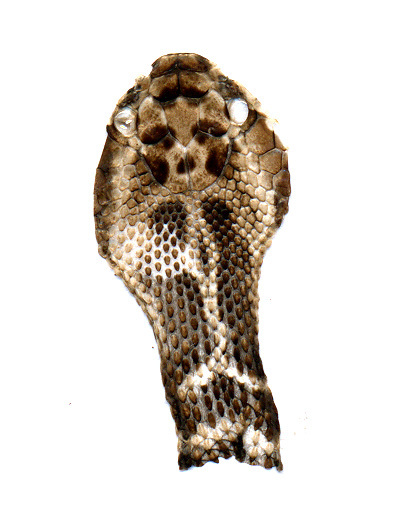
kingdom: Animalia
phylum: Chordata
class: Squamata
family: Viperidae
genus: Gloydius
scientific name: Gloydius intermedius
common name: Central asian pit viper
